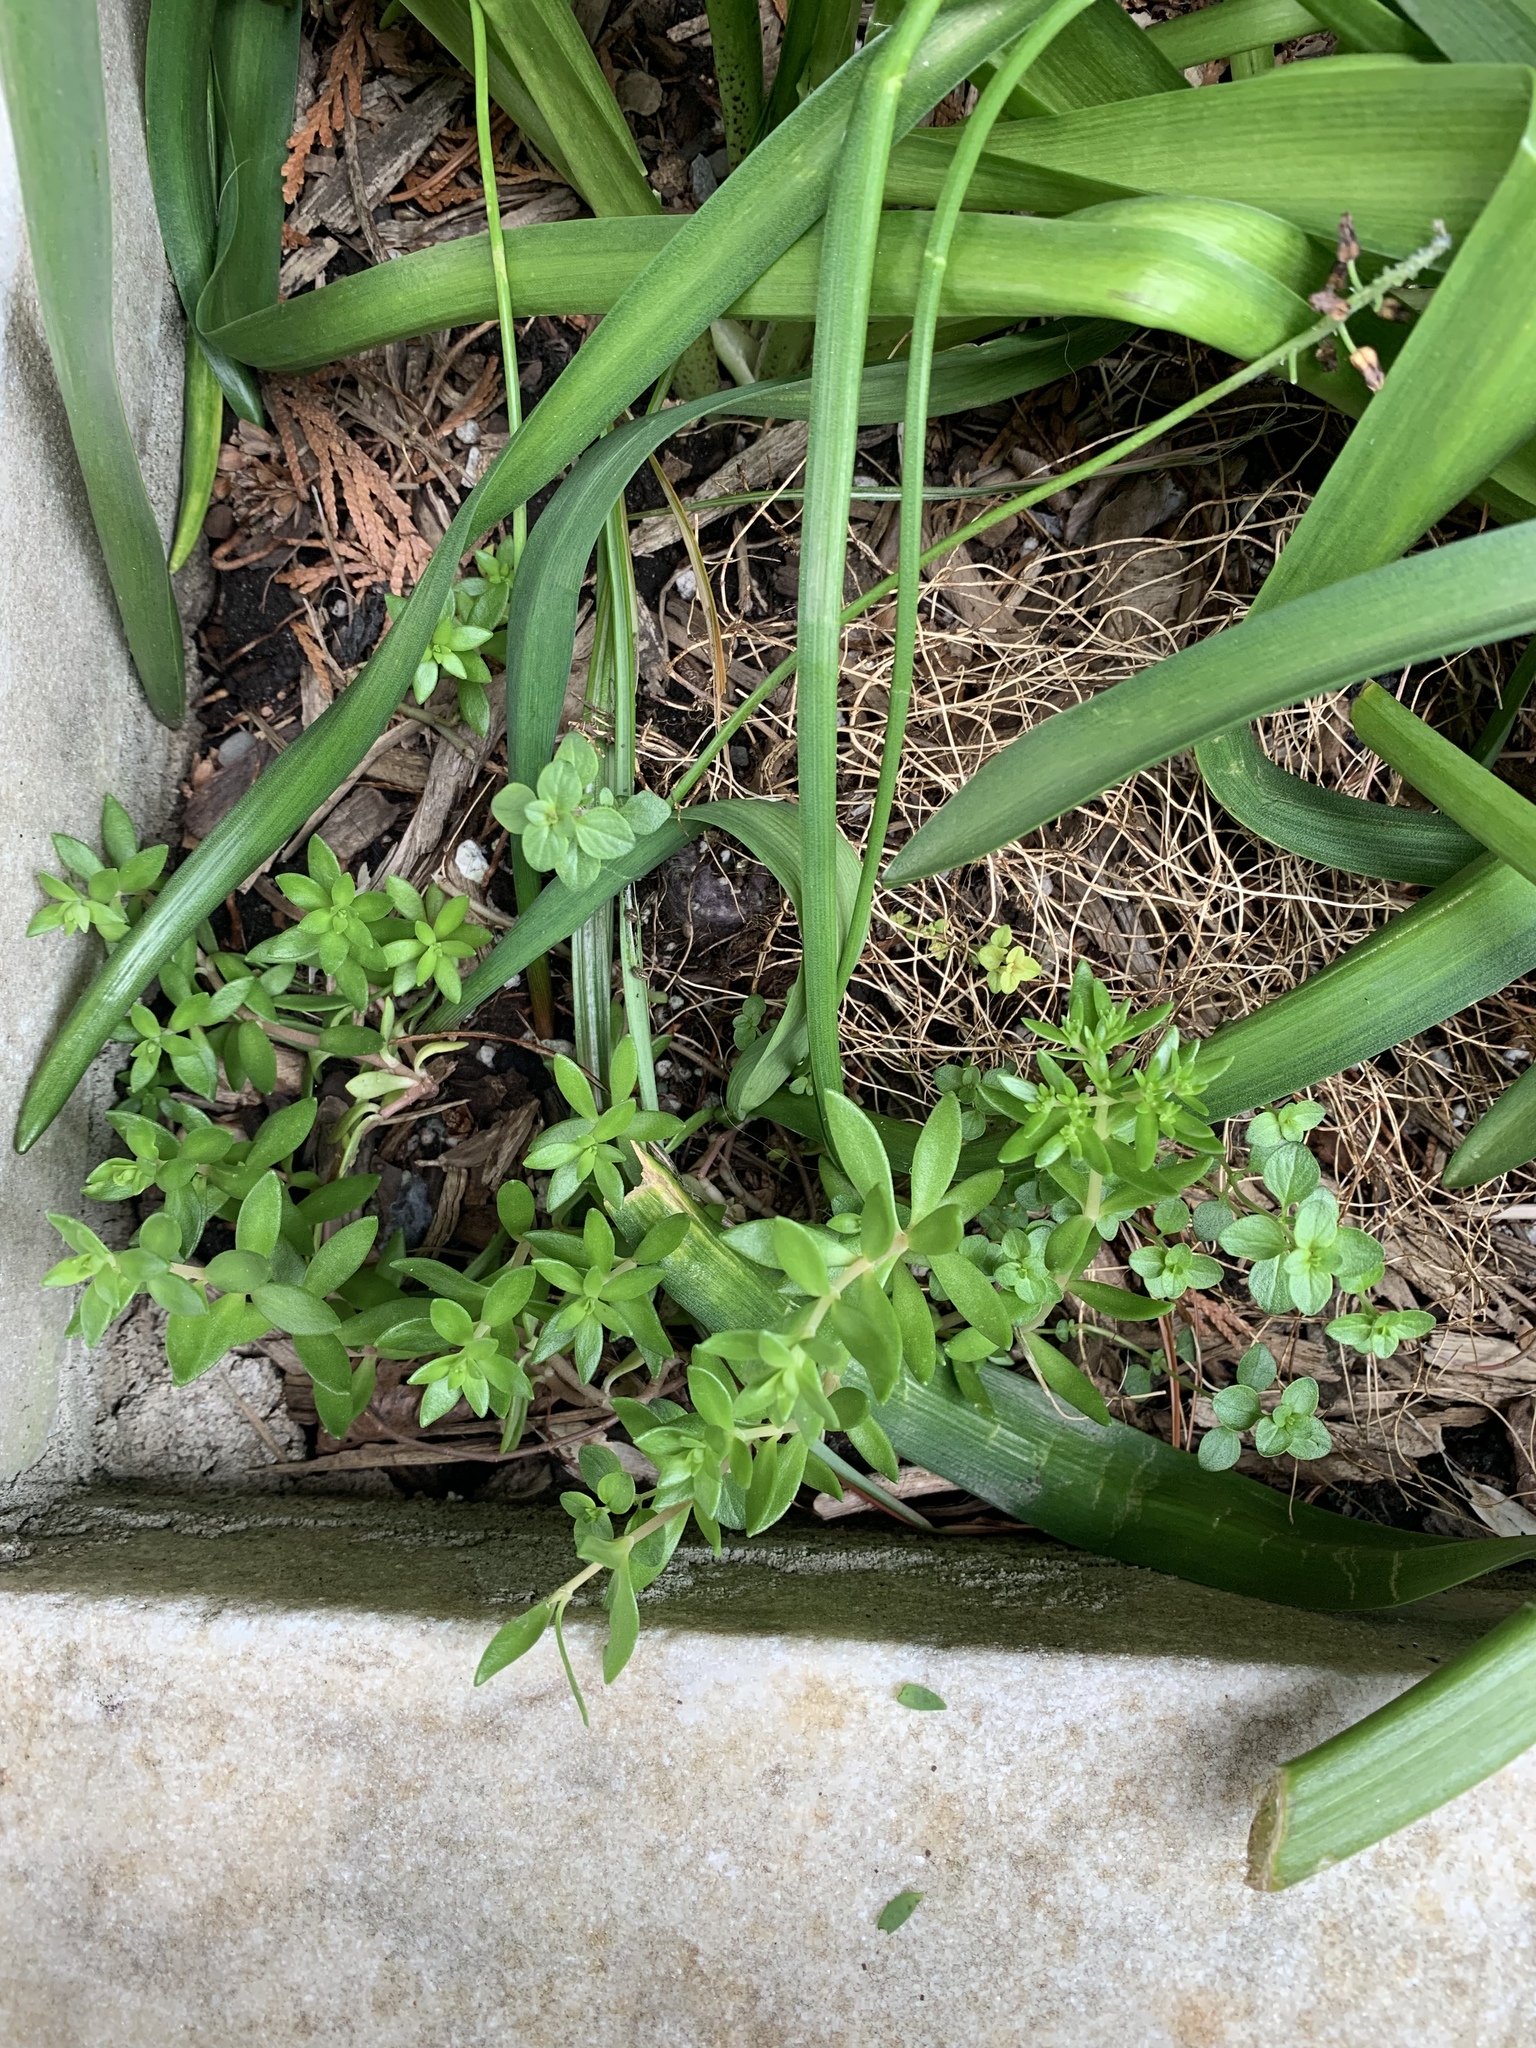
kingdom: Plantae
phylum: Tracheophyta
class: Magnoliopsida
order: Saxifragales
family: Crassulaceae
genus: Sedum
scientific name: Sedum sarmentosum
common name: Stringy stonecrop
